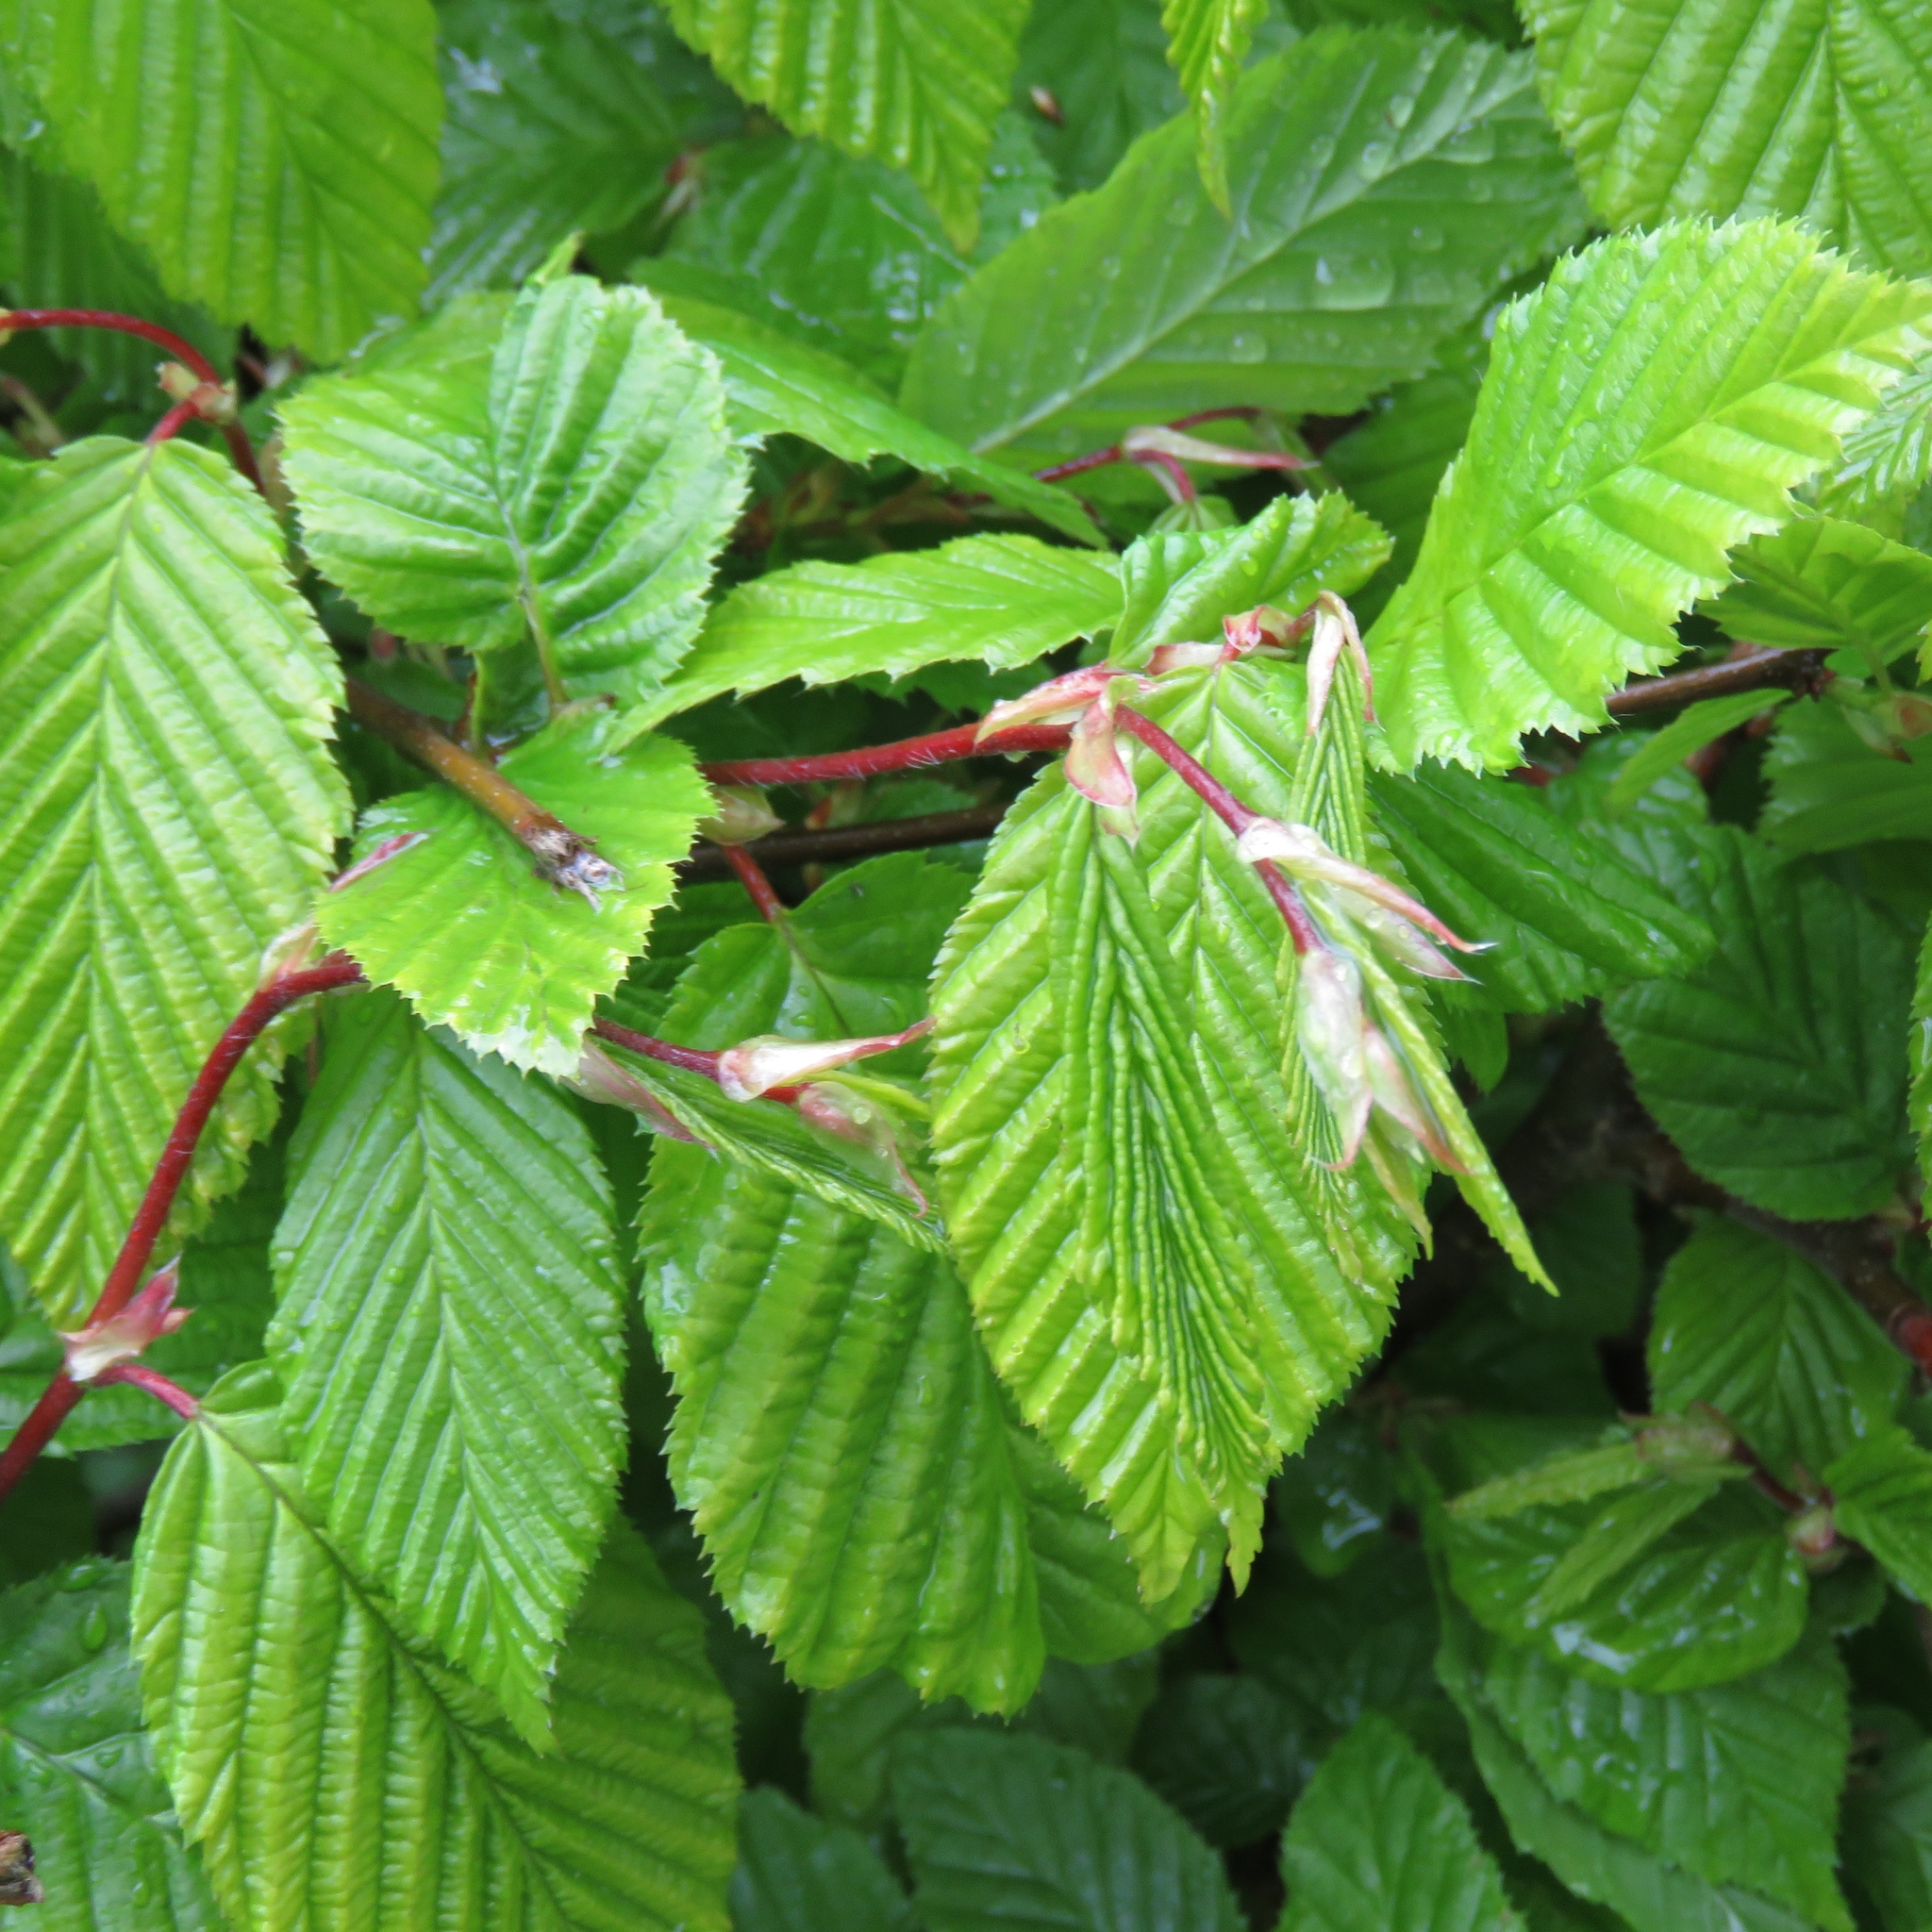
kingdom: Plantae
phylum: Tracheophyta
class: Magnoliopsida
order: Fagales
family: Betulaceae
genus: Carpinus
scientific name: Carpinus betulus
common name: Hornbeam
